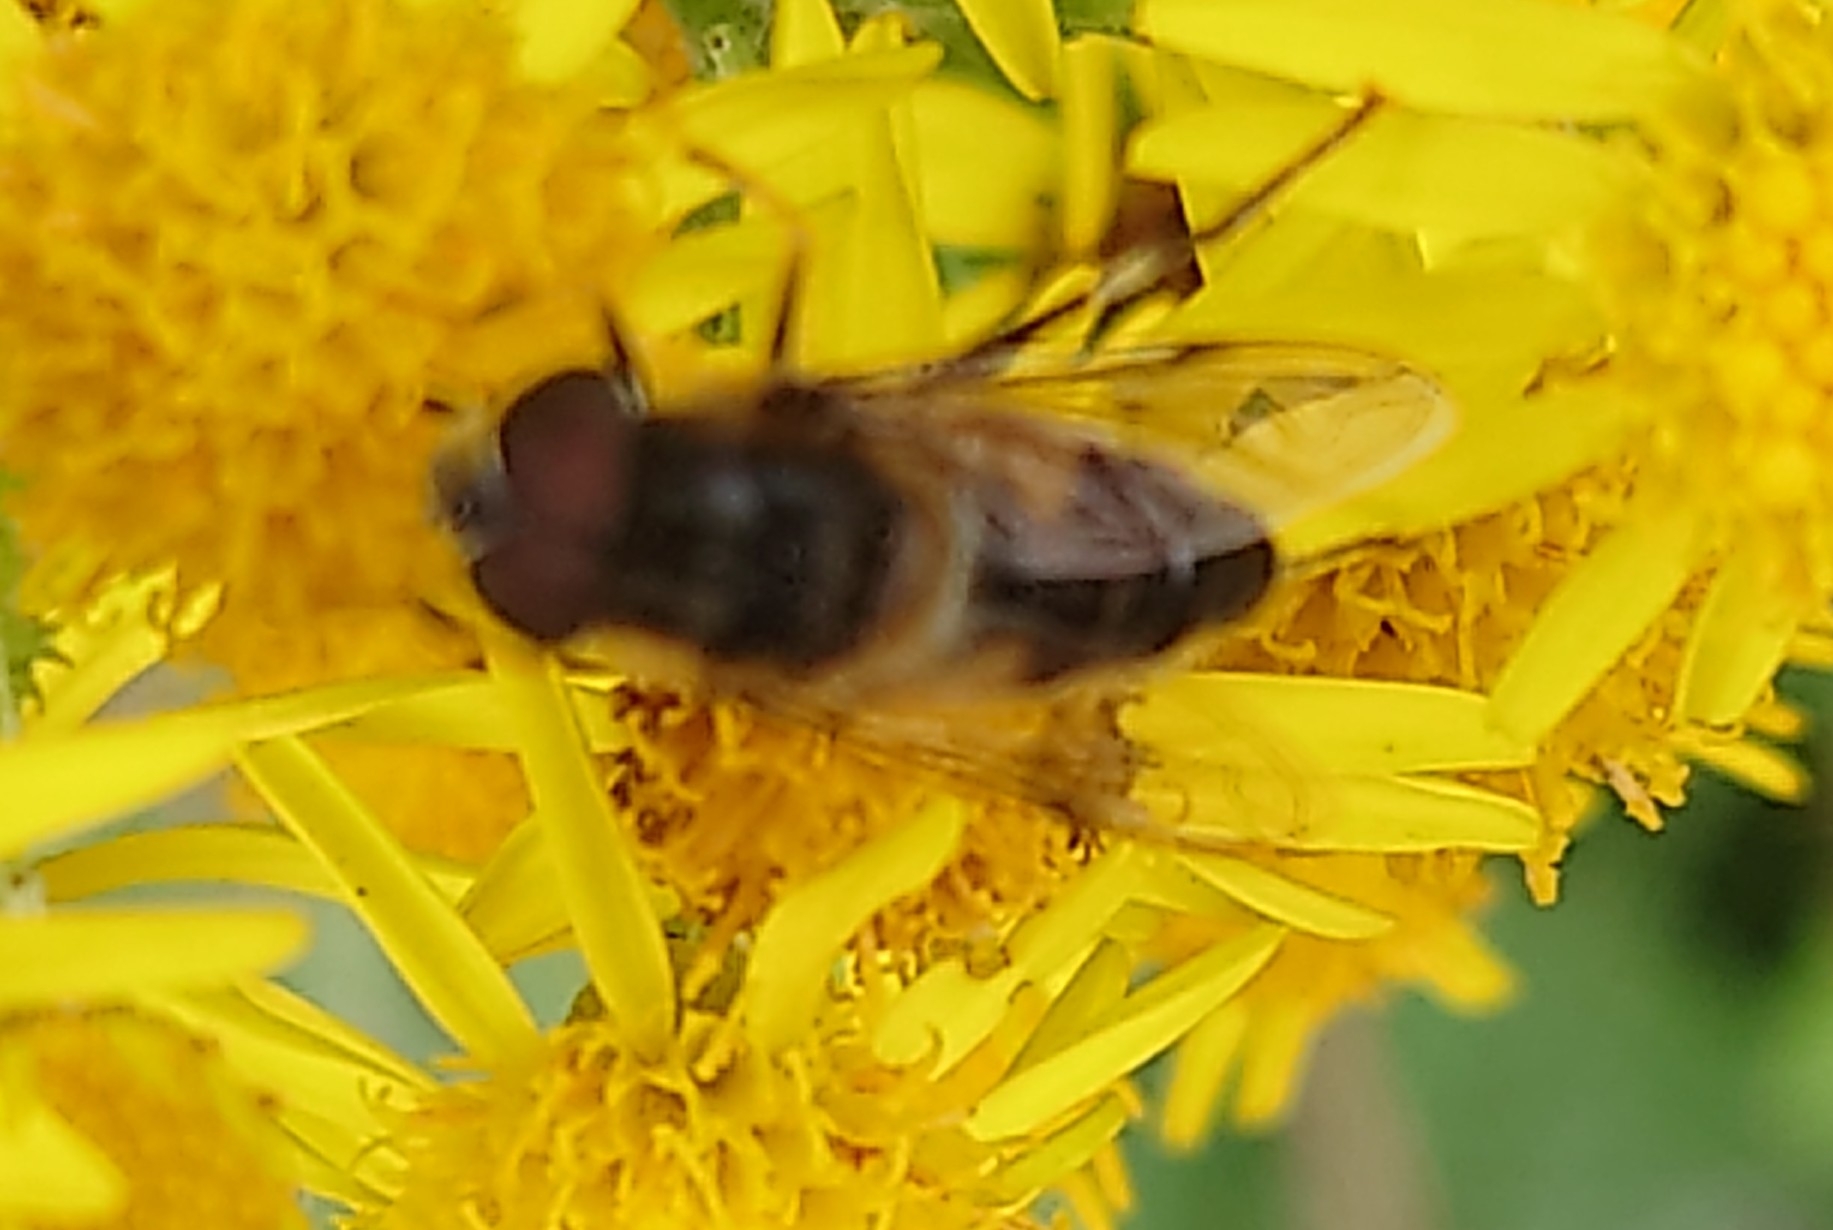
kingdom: Animalia
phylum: Arthropoda
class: Insecta
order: Diptera
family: Syrphidae
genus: Eristalis
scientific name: Eristalis pertinax
